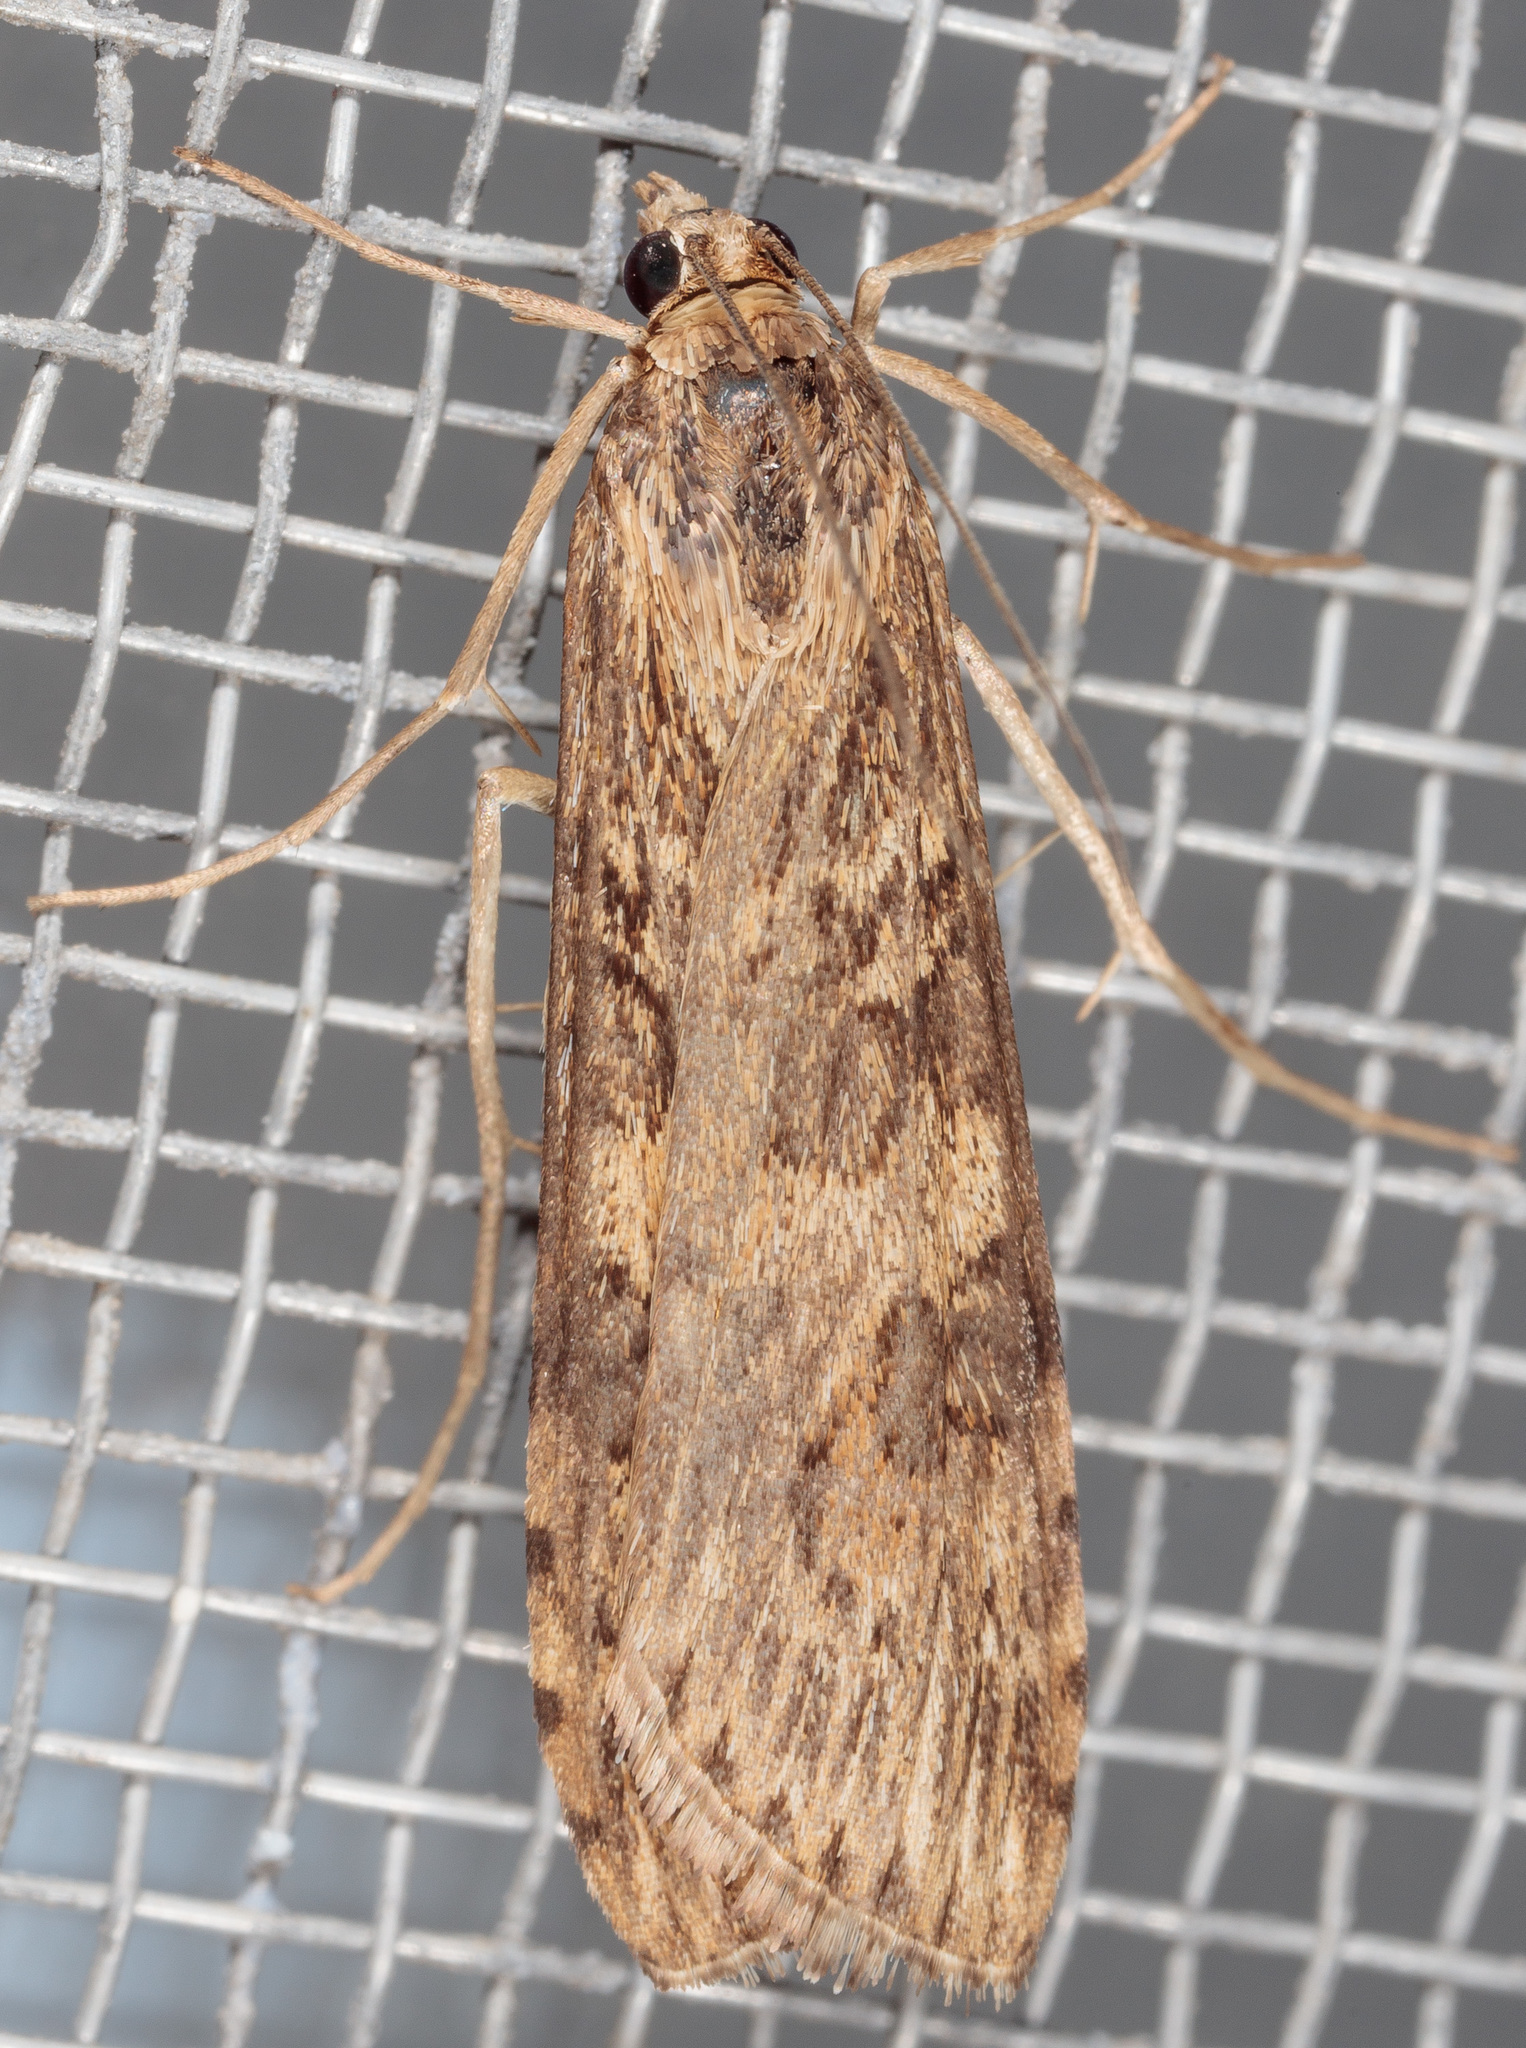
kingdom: Animalia
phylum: Arthropoda
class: Insecta
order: Lepidoptera
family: Crambidae
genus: Nomophila
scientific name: Nomophila nearctica
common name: American rush veneer
